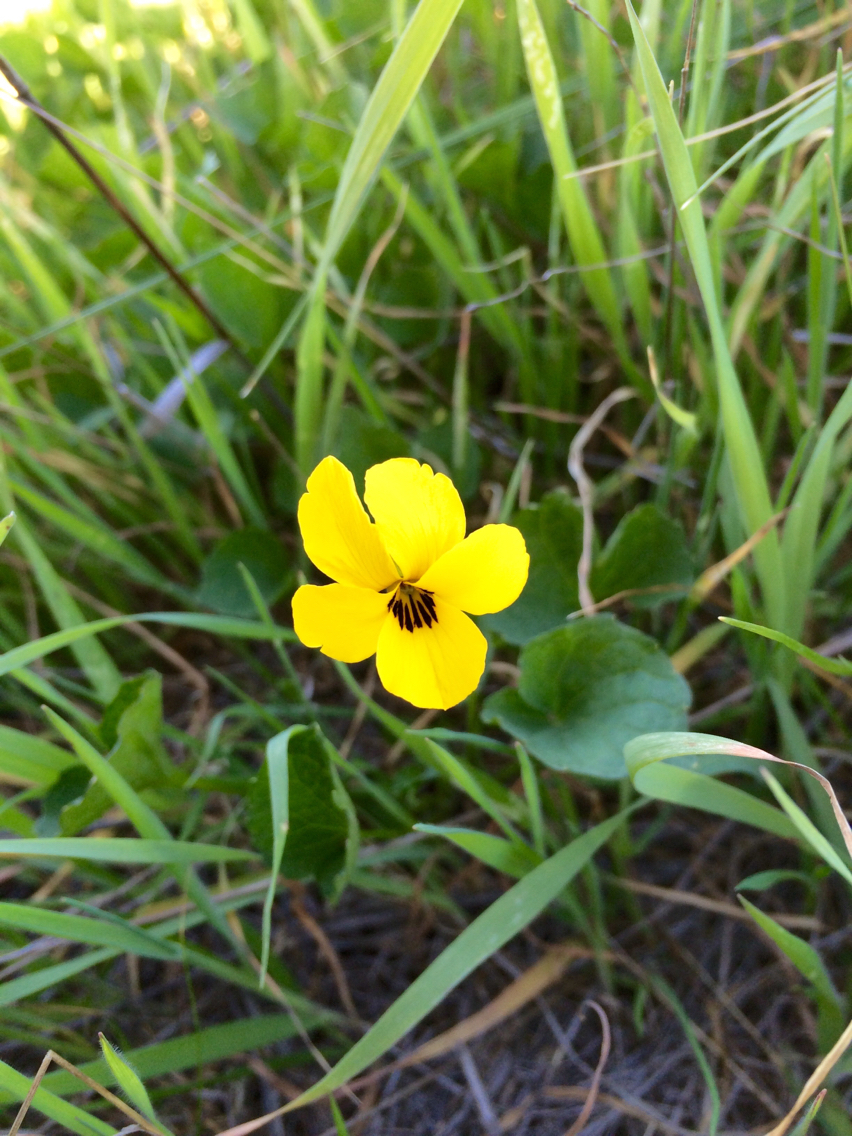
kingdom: Plantae
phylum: Tracheophyta
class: Magnoliopsida
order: Malpighiales
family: Violaceae
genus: Viola
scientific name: Viola pedunculata
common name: California golden violet
